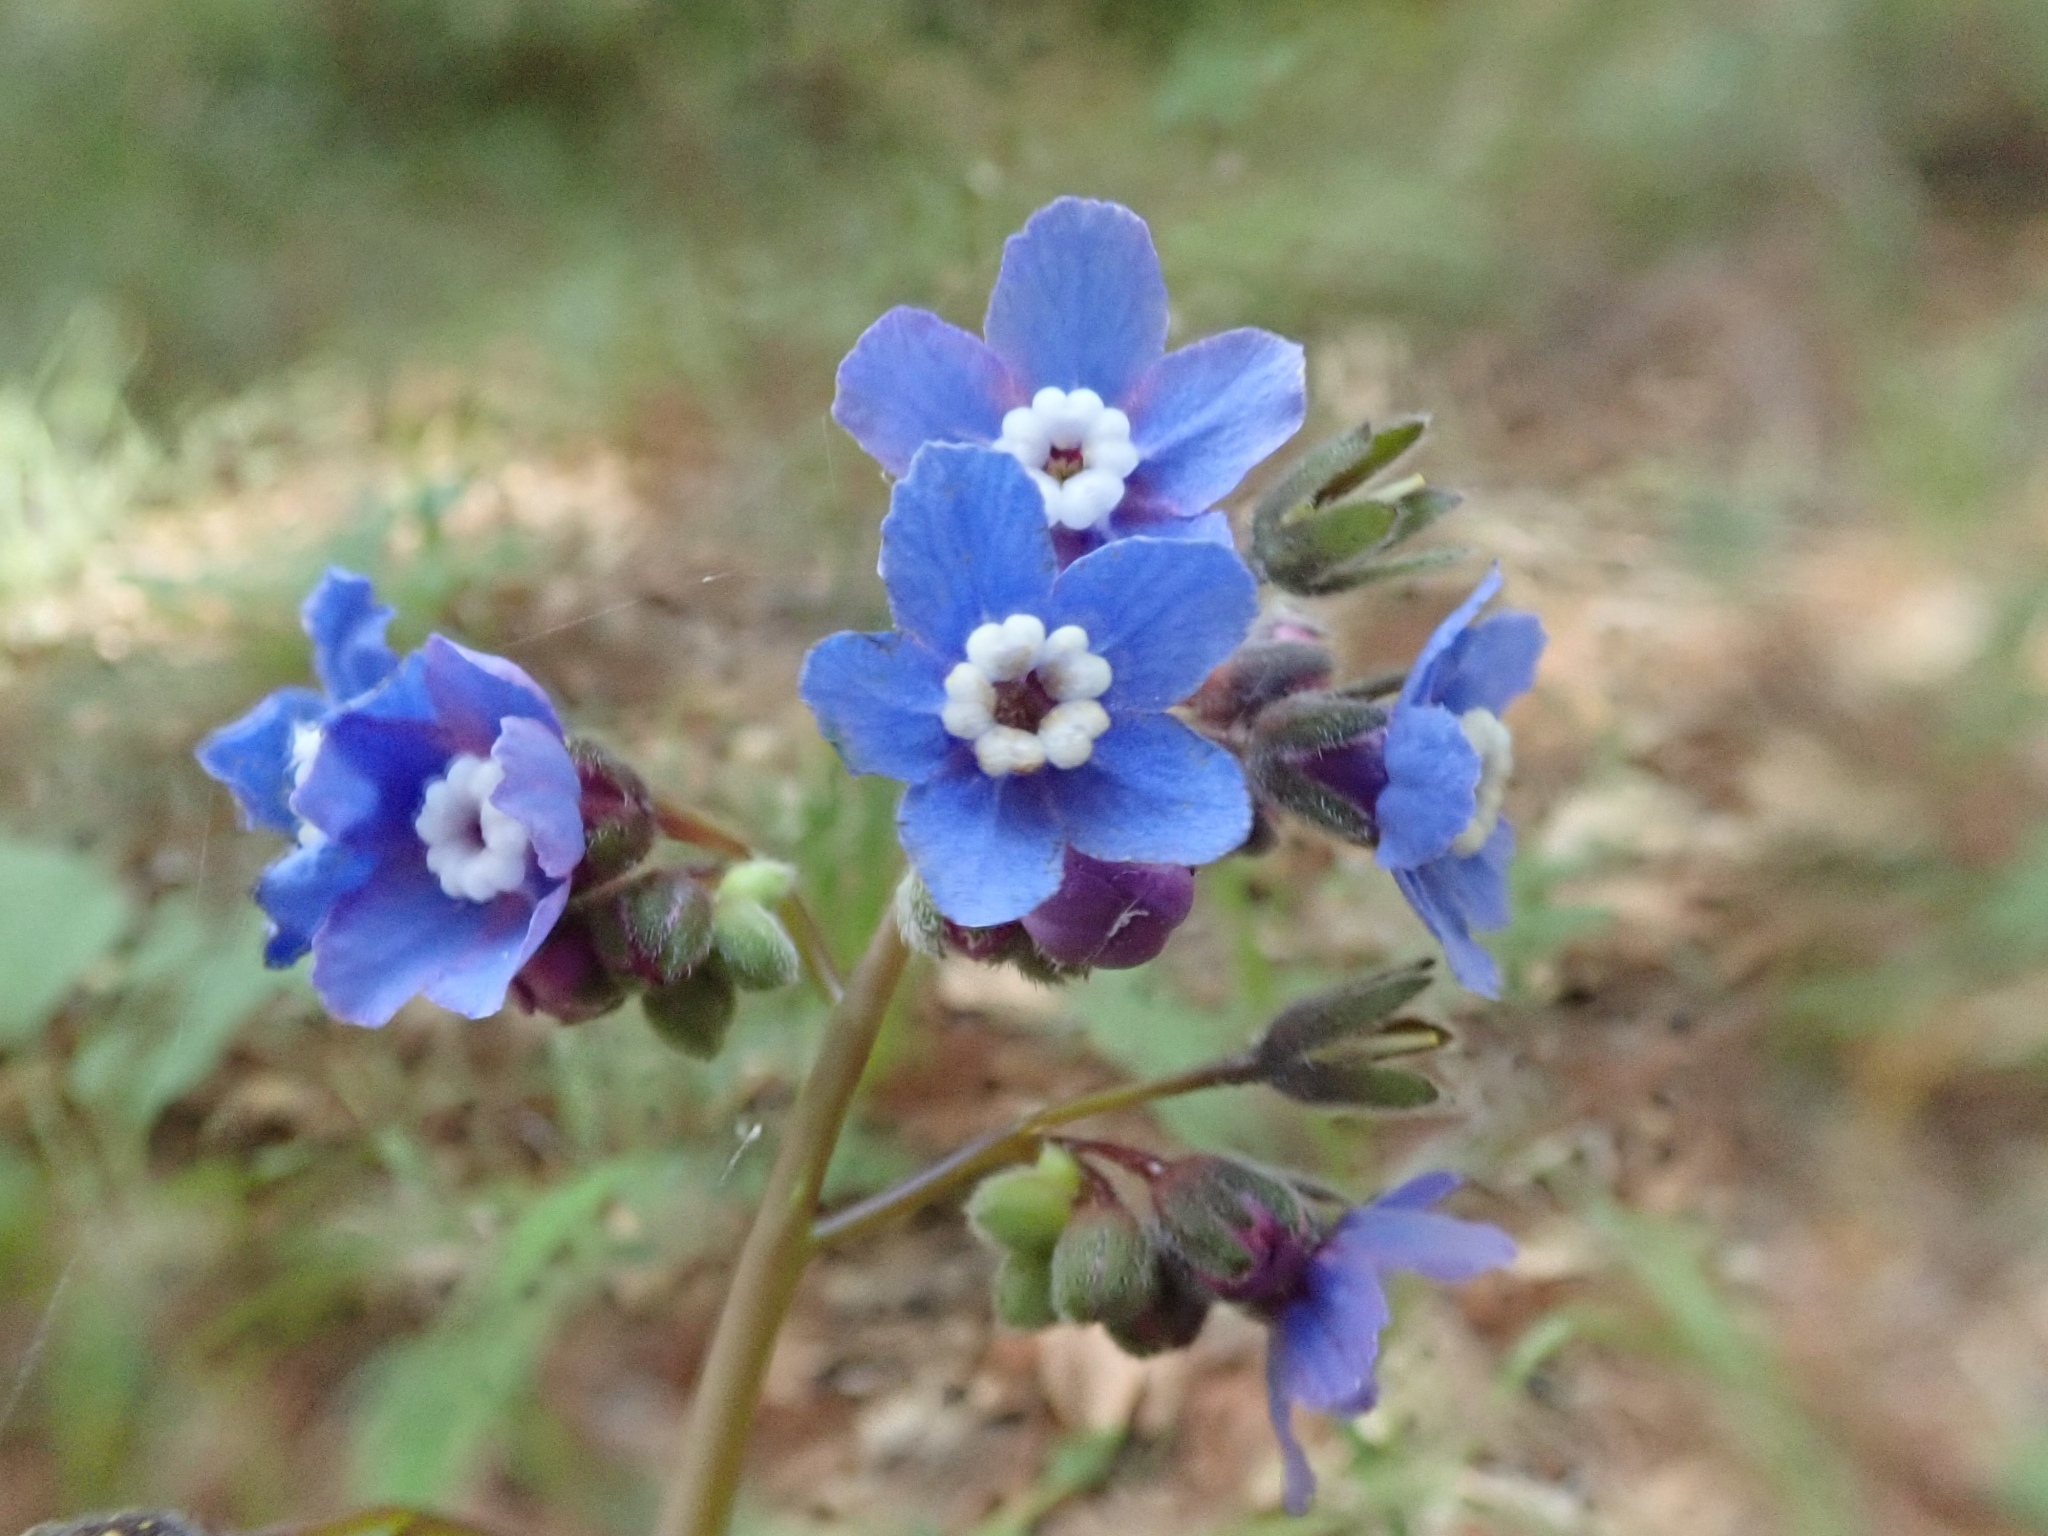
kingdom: Plantae
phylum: Tracheophyta
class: Magnoliopsida
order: Boraginales
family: Boraginaceae
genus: Adelinia
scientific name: Adelinia grande
